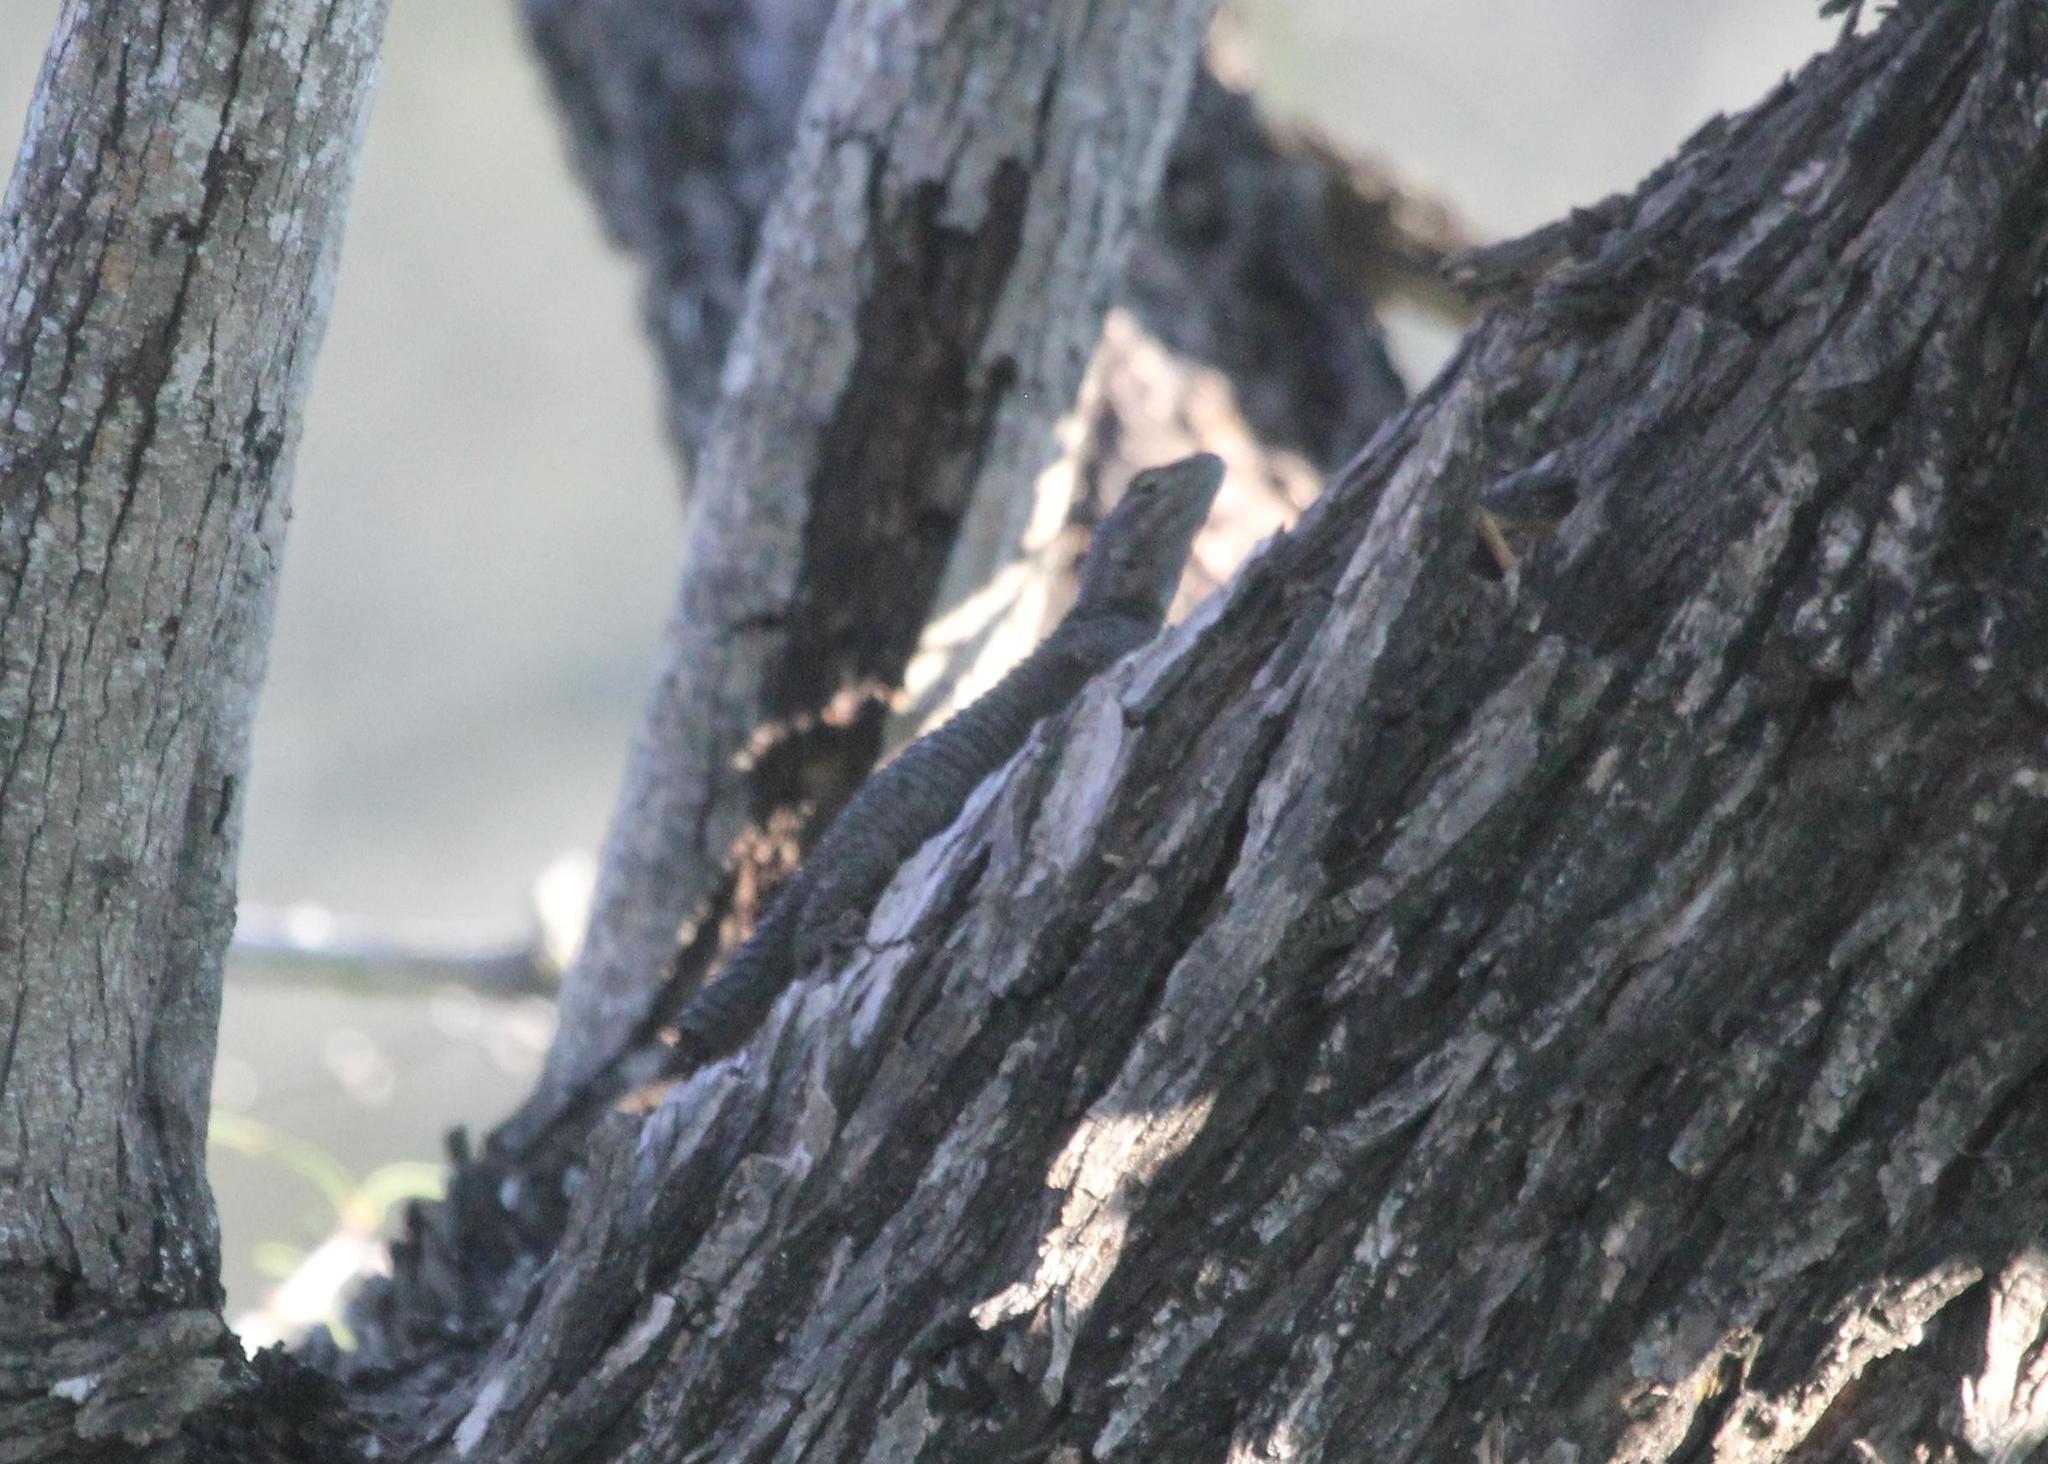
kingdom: Animalia
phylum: Chordata
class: Squamata
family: Phrynosomatidae
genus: Sceloporus
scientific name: Sceloporus cyanogenys
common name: Blue spiny lizard
